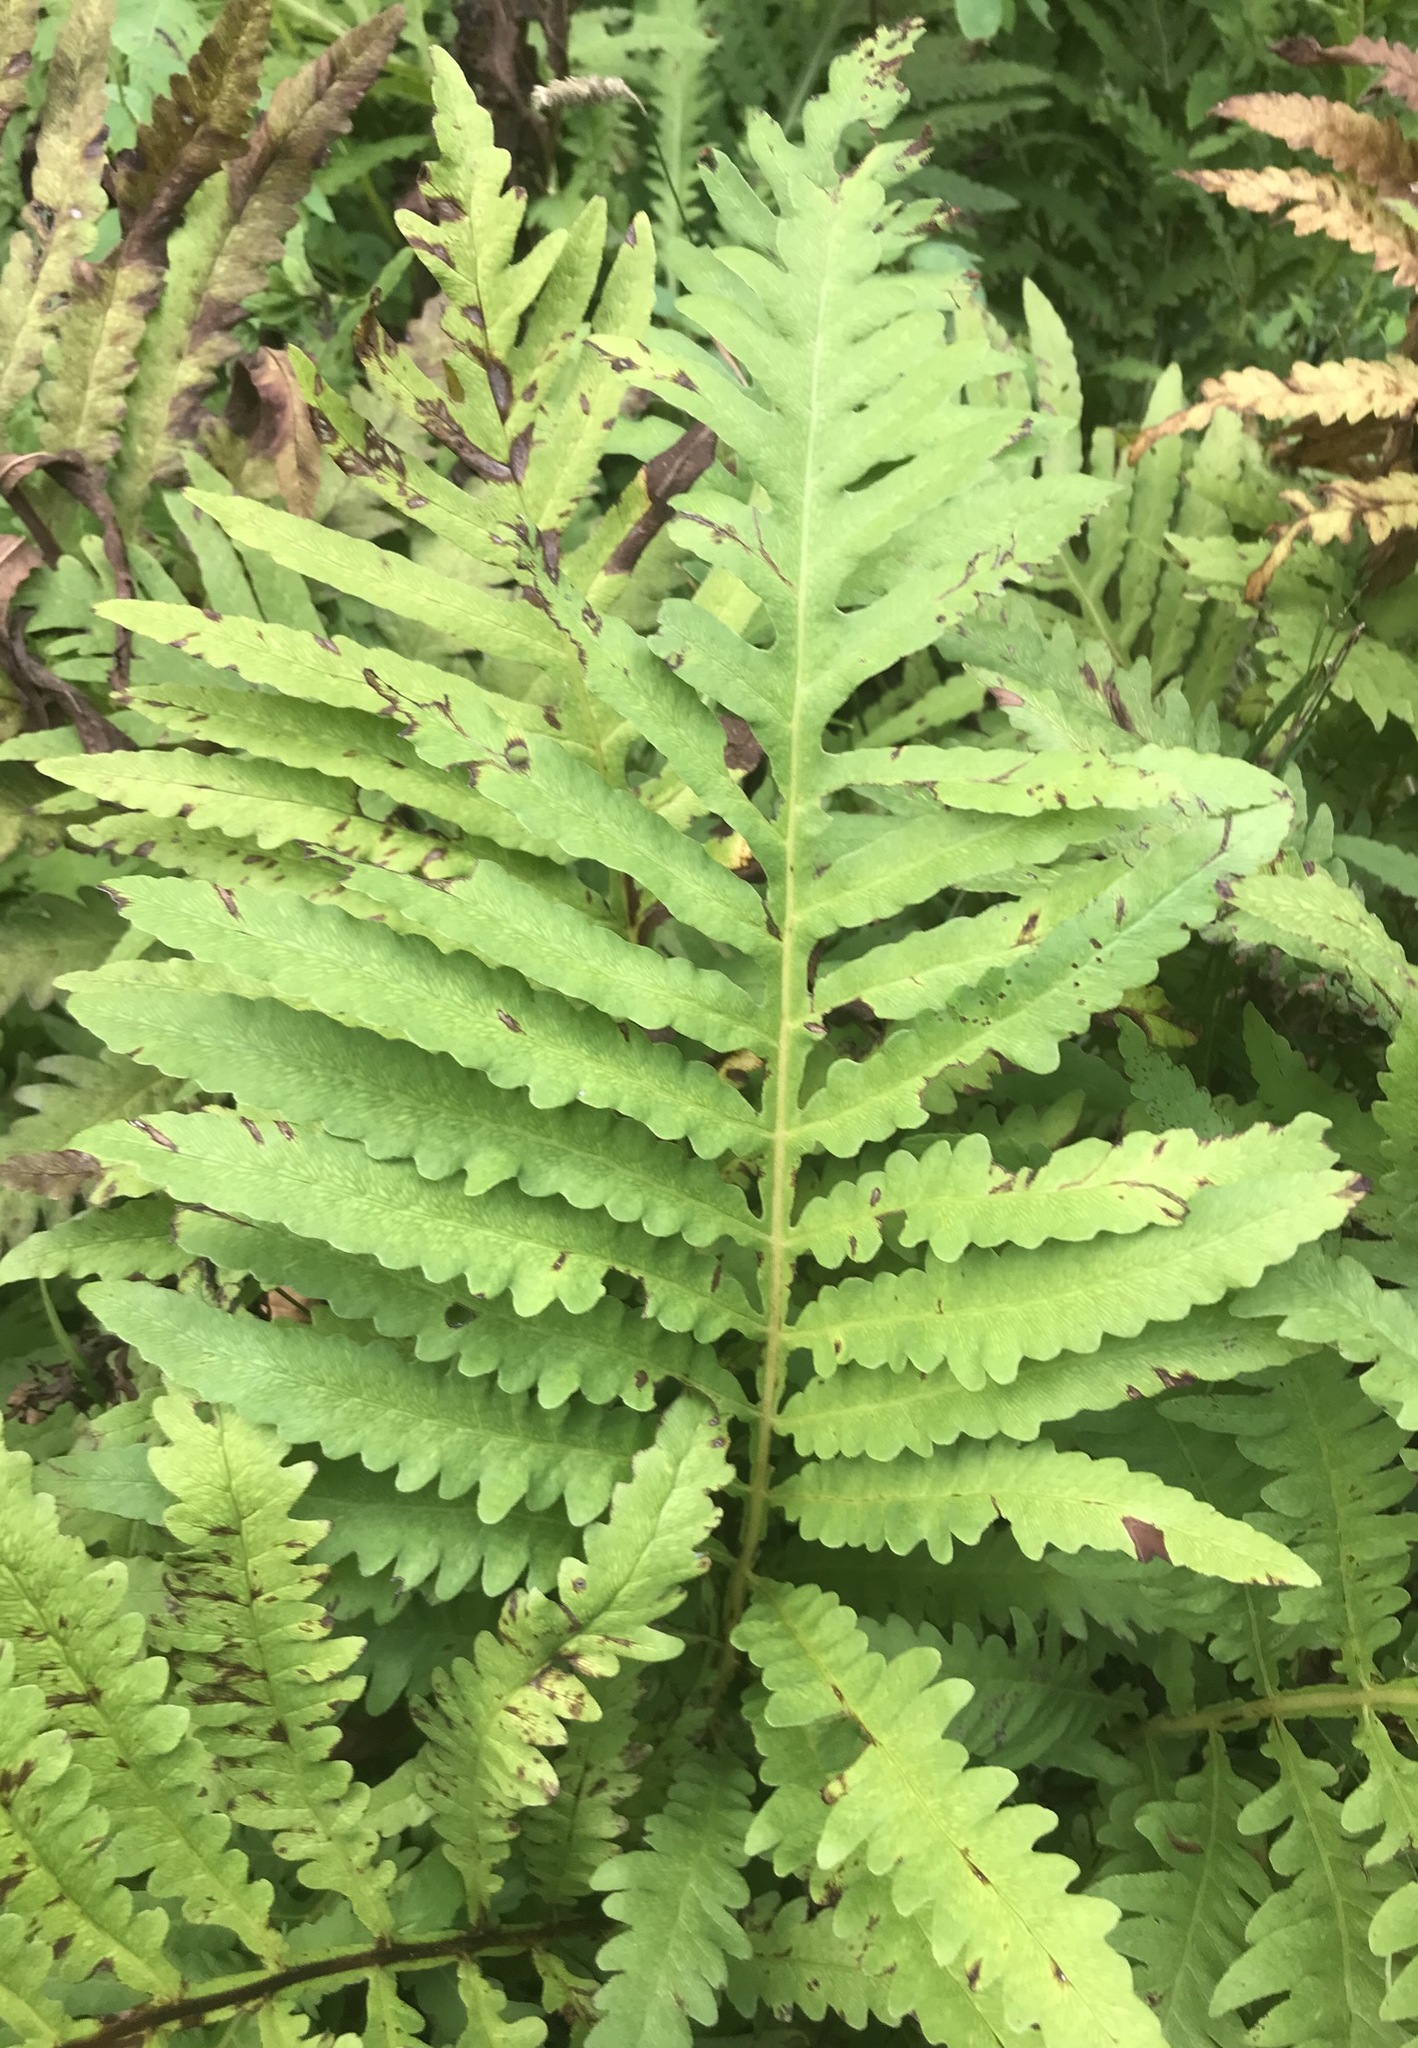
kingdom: Plantae
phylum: Tracheophyta
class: Polypodiopsida
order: Polypodiales
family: Onocleaceae
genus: Onoclea
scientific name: Onoclea sensibilis
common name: Sensitive fern
